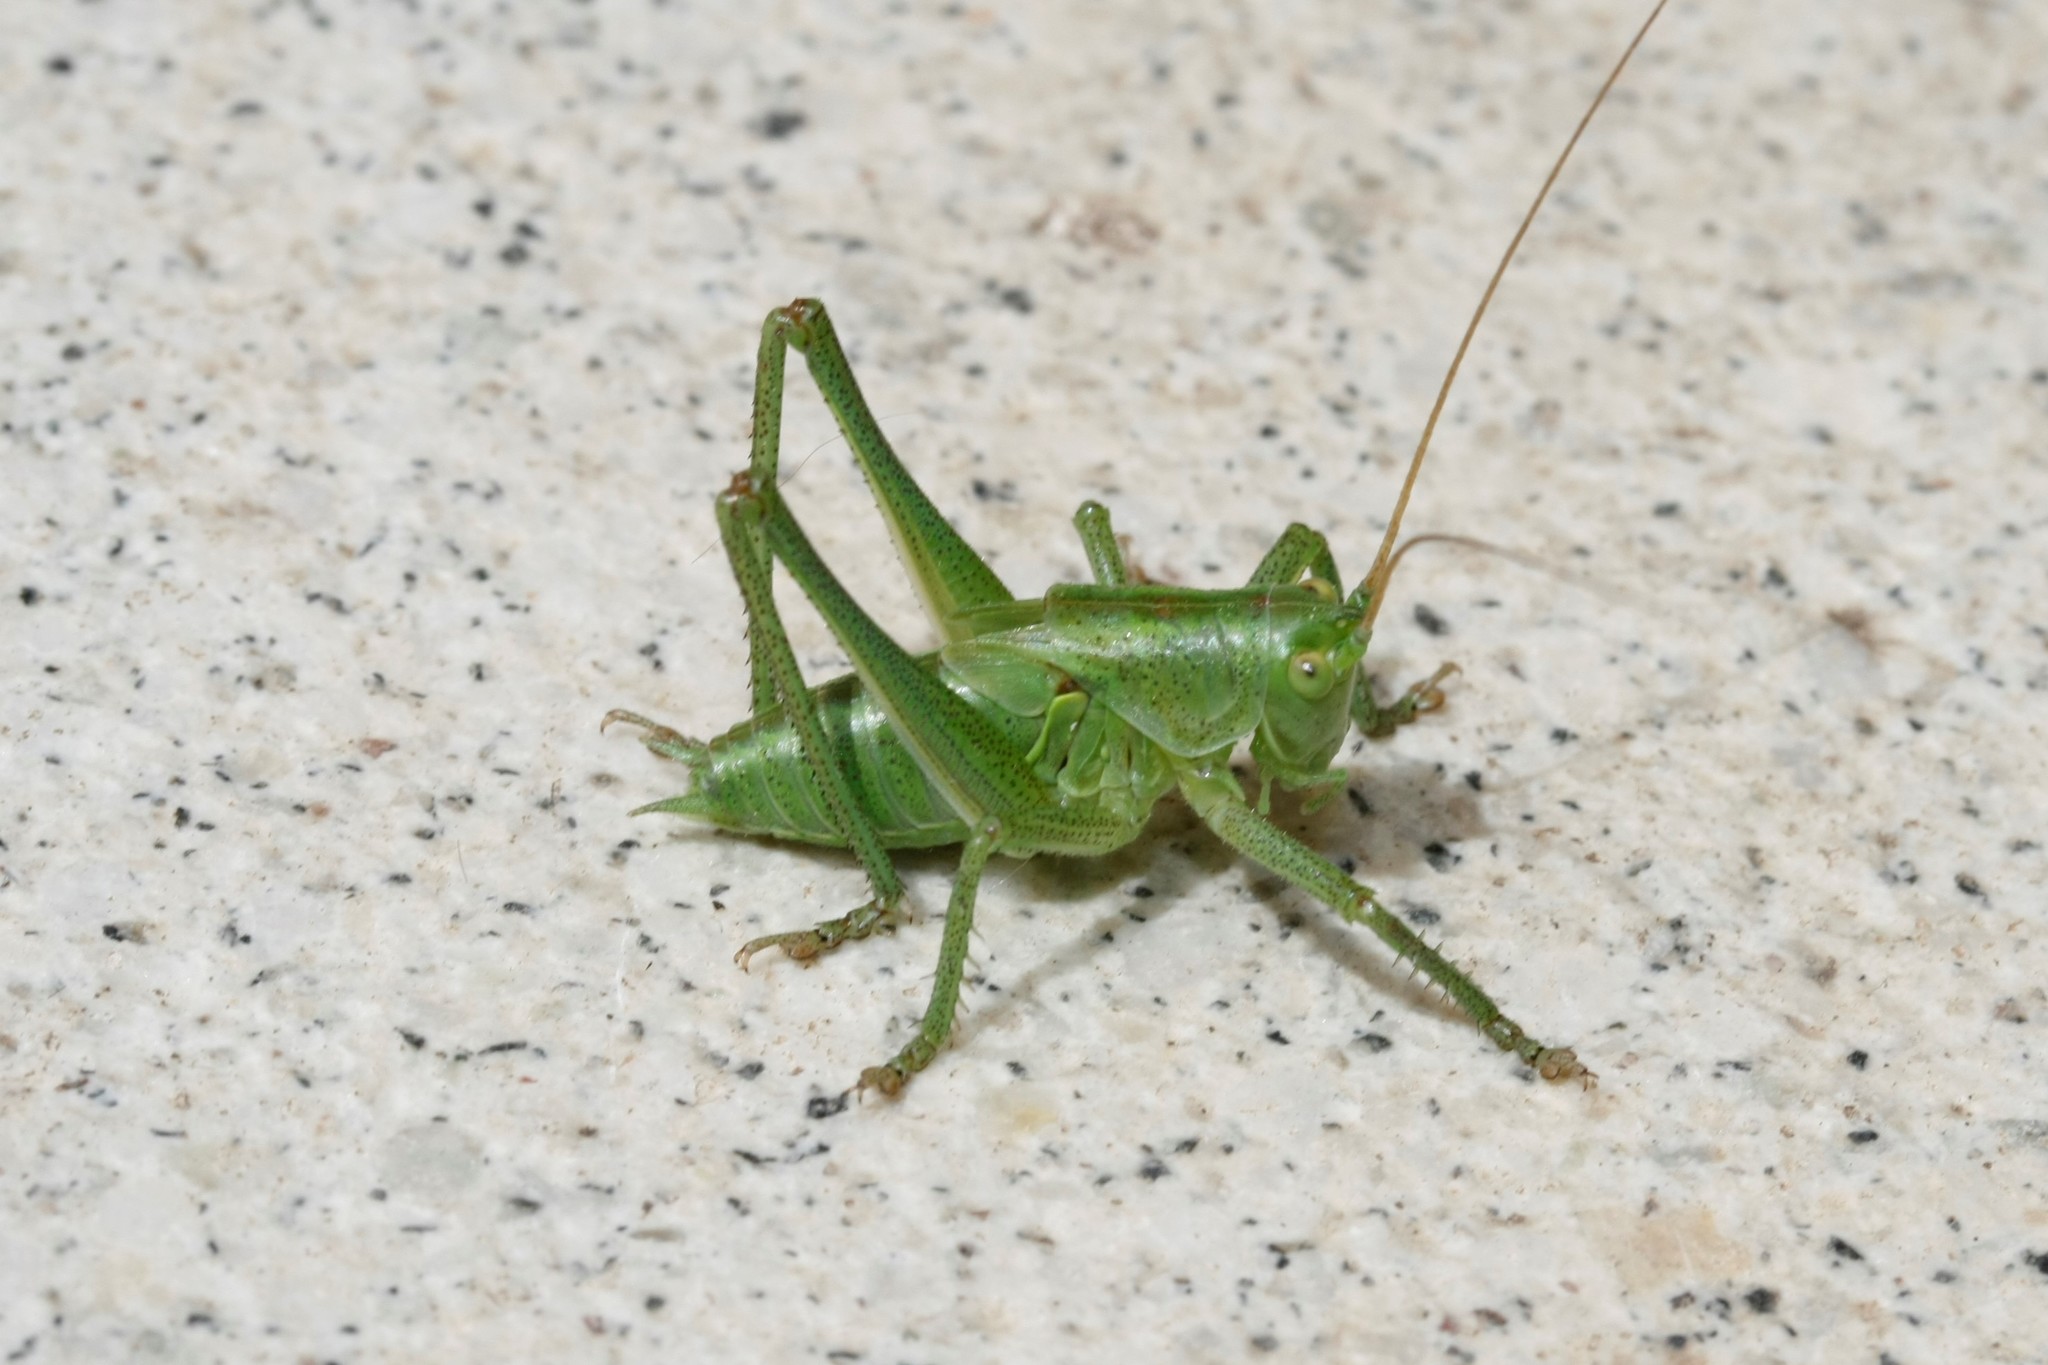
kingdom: Animalia
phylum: Arthropoda
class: Insecta
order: Orthoptera
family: Tettigoniidae
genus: Tettigonia
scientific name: Tettigonia viridissima
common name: Great green bush-cricket
